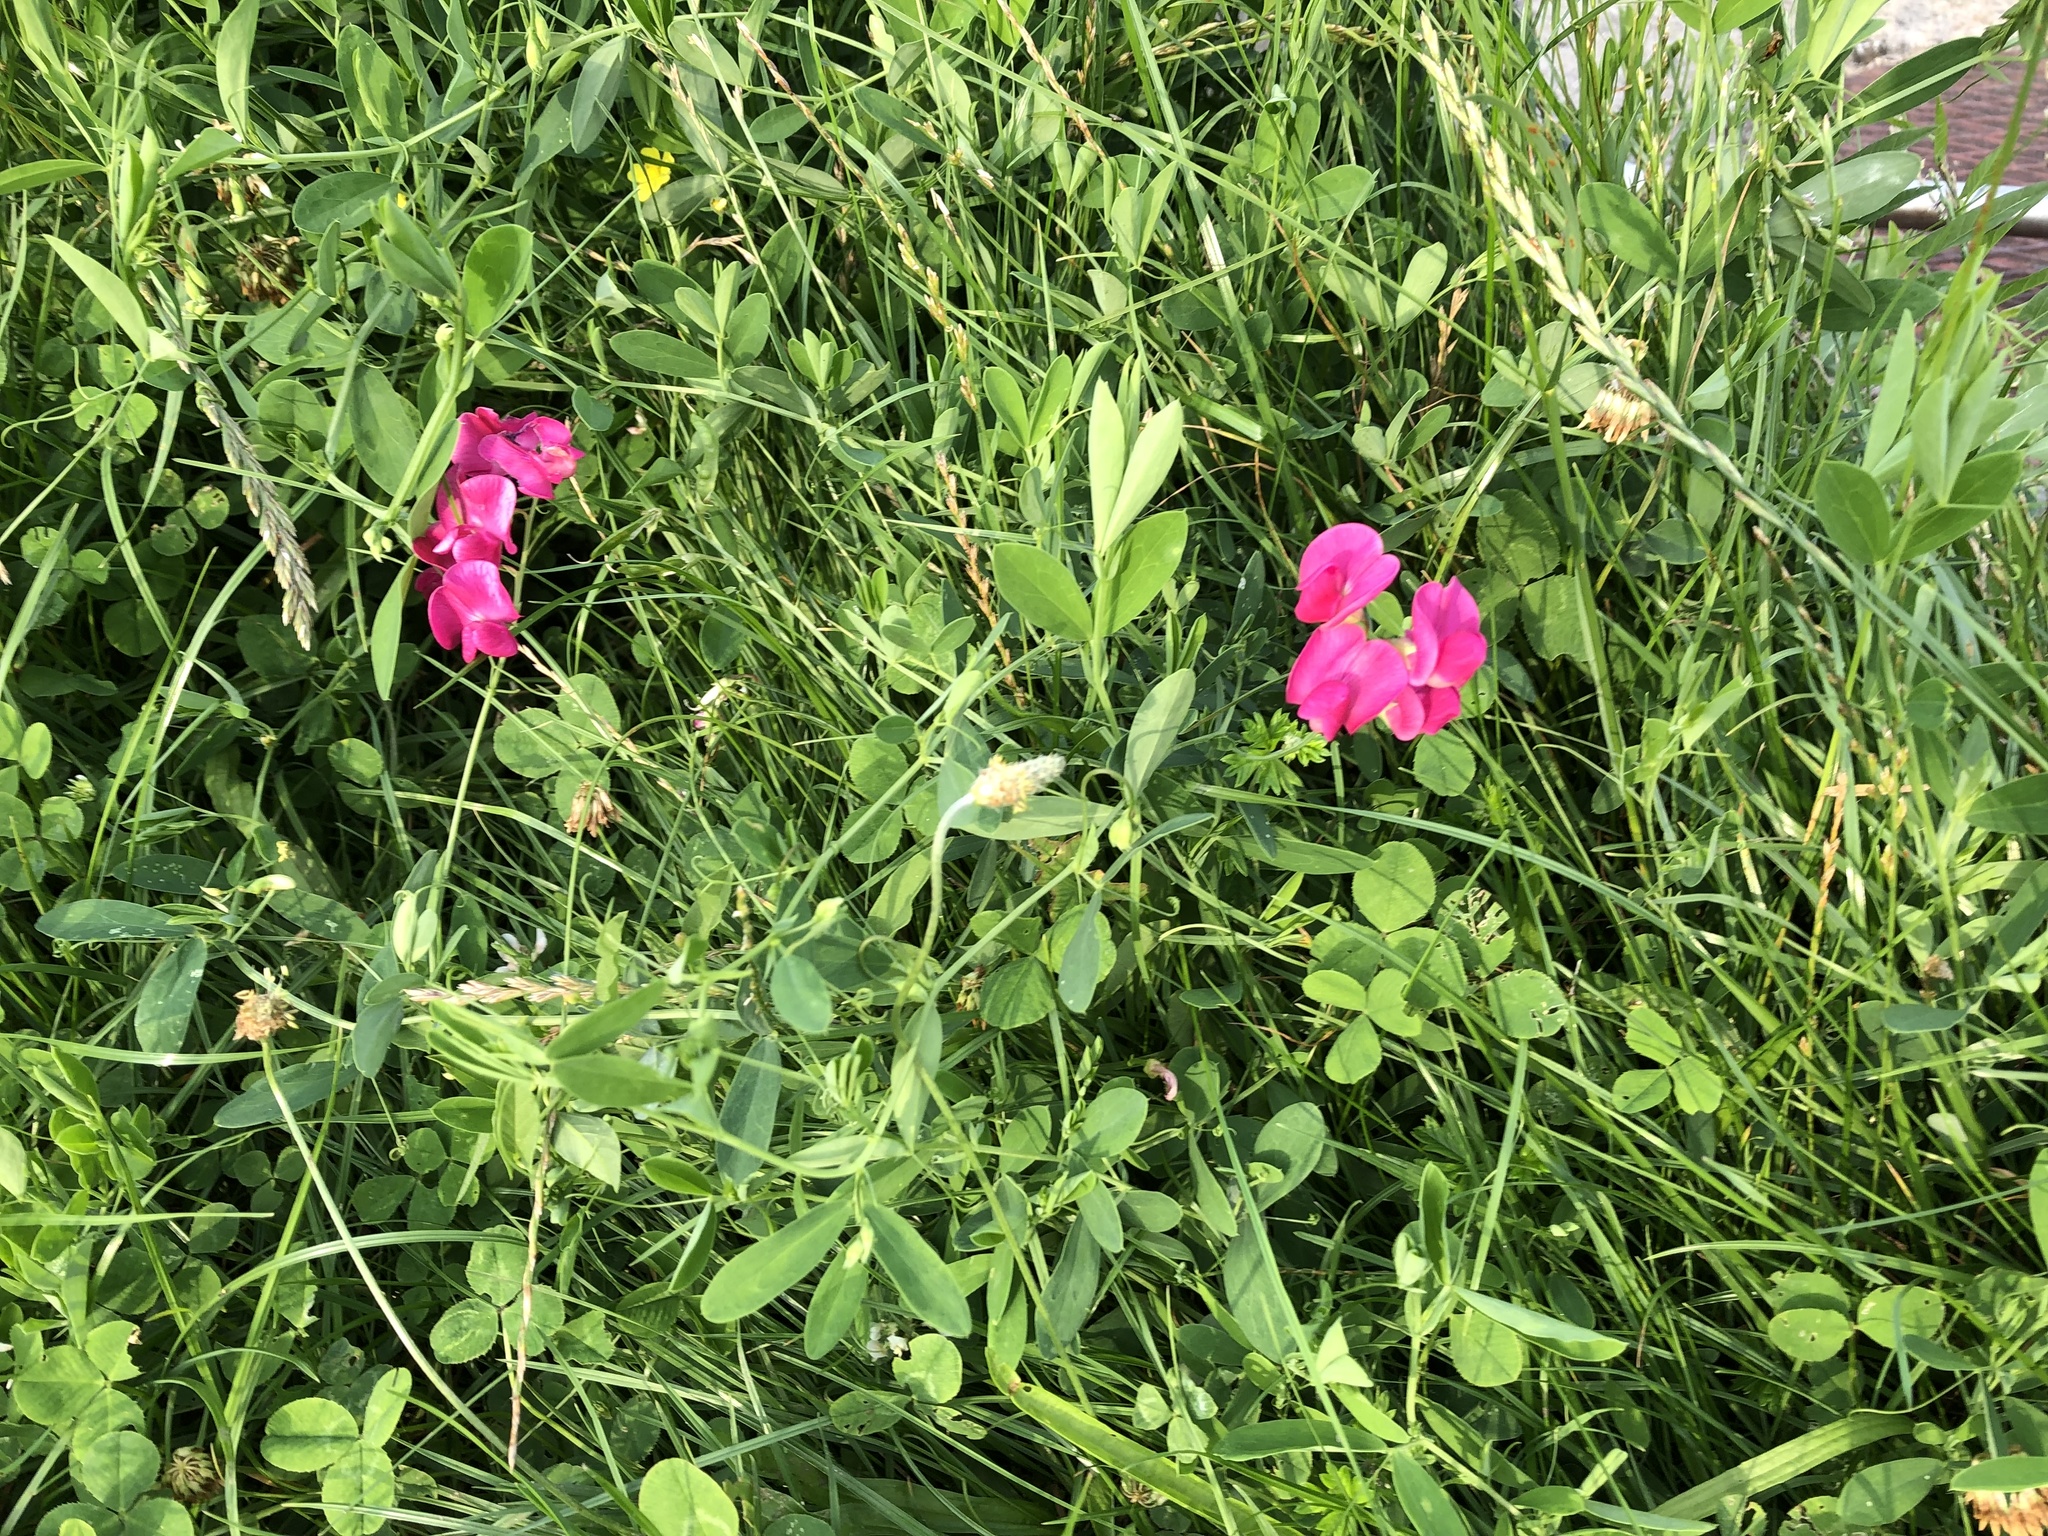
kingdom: Plantae
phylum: Tracheophyta
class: Magnoliopsida
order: Fabales
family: Fabaceae
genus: Lathyrus
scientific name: Lathyrus tuberosus
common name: Tuberous pea
